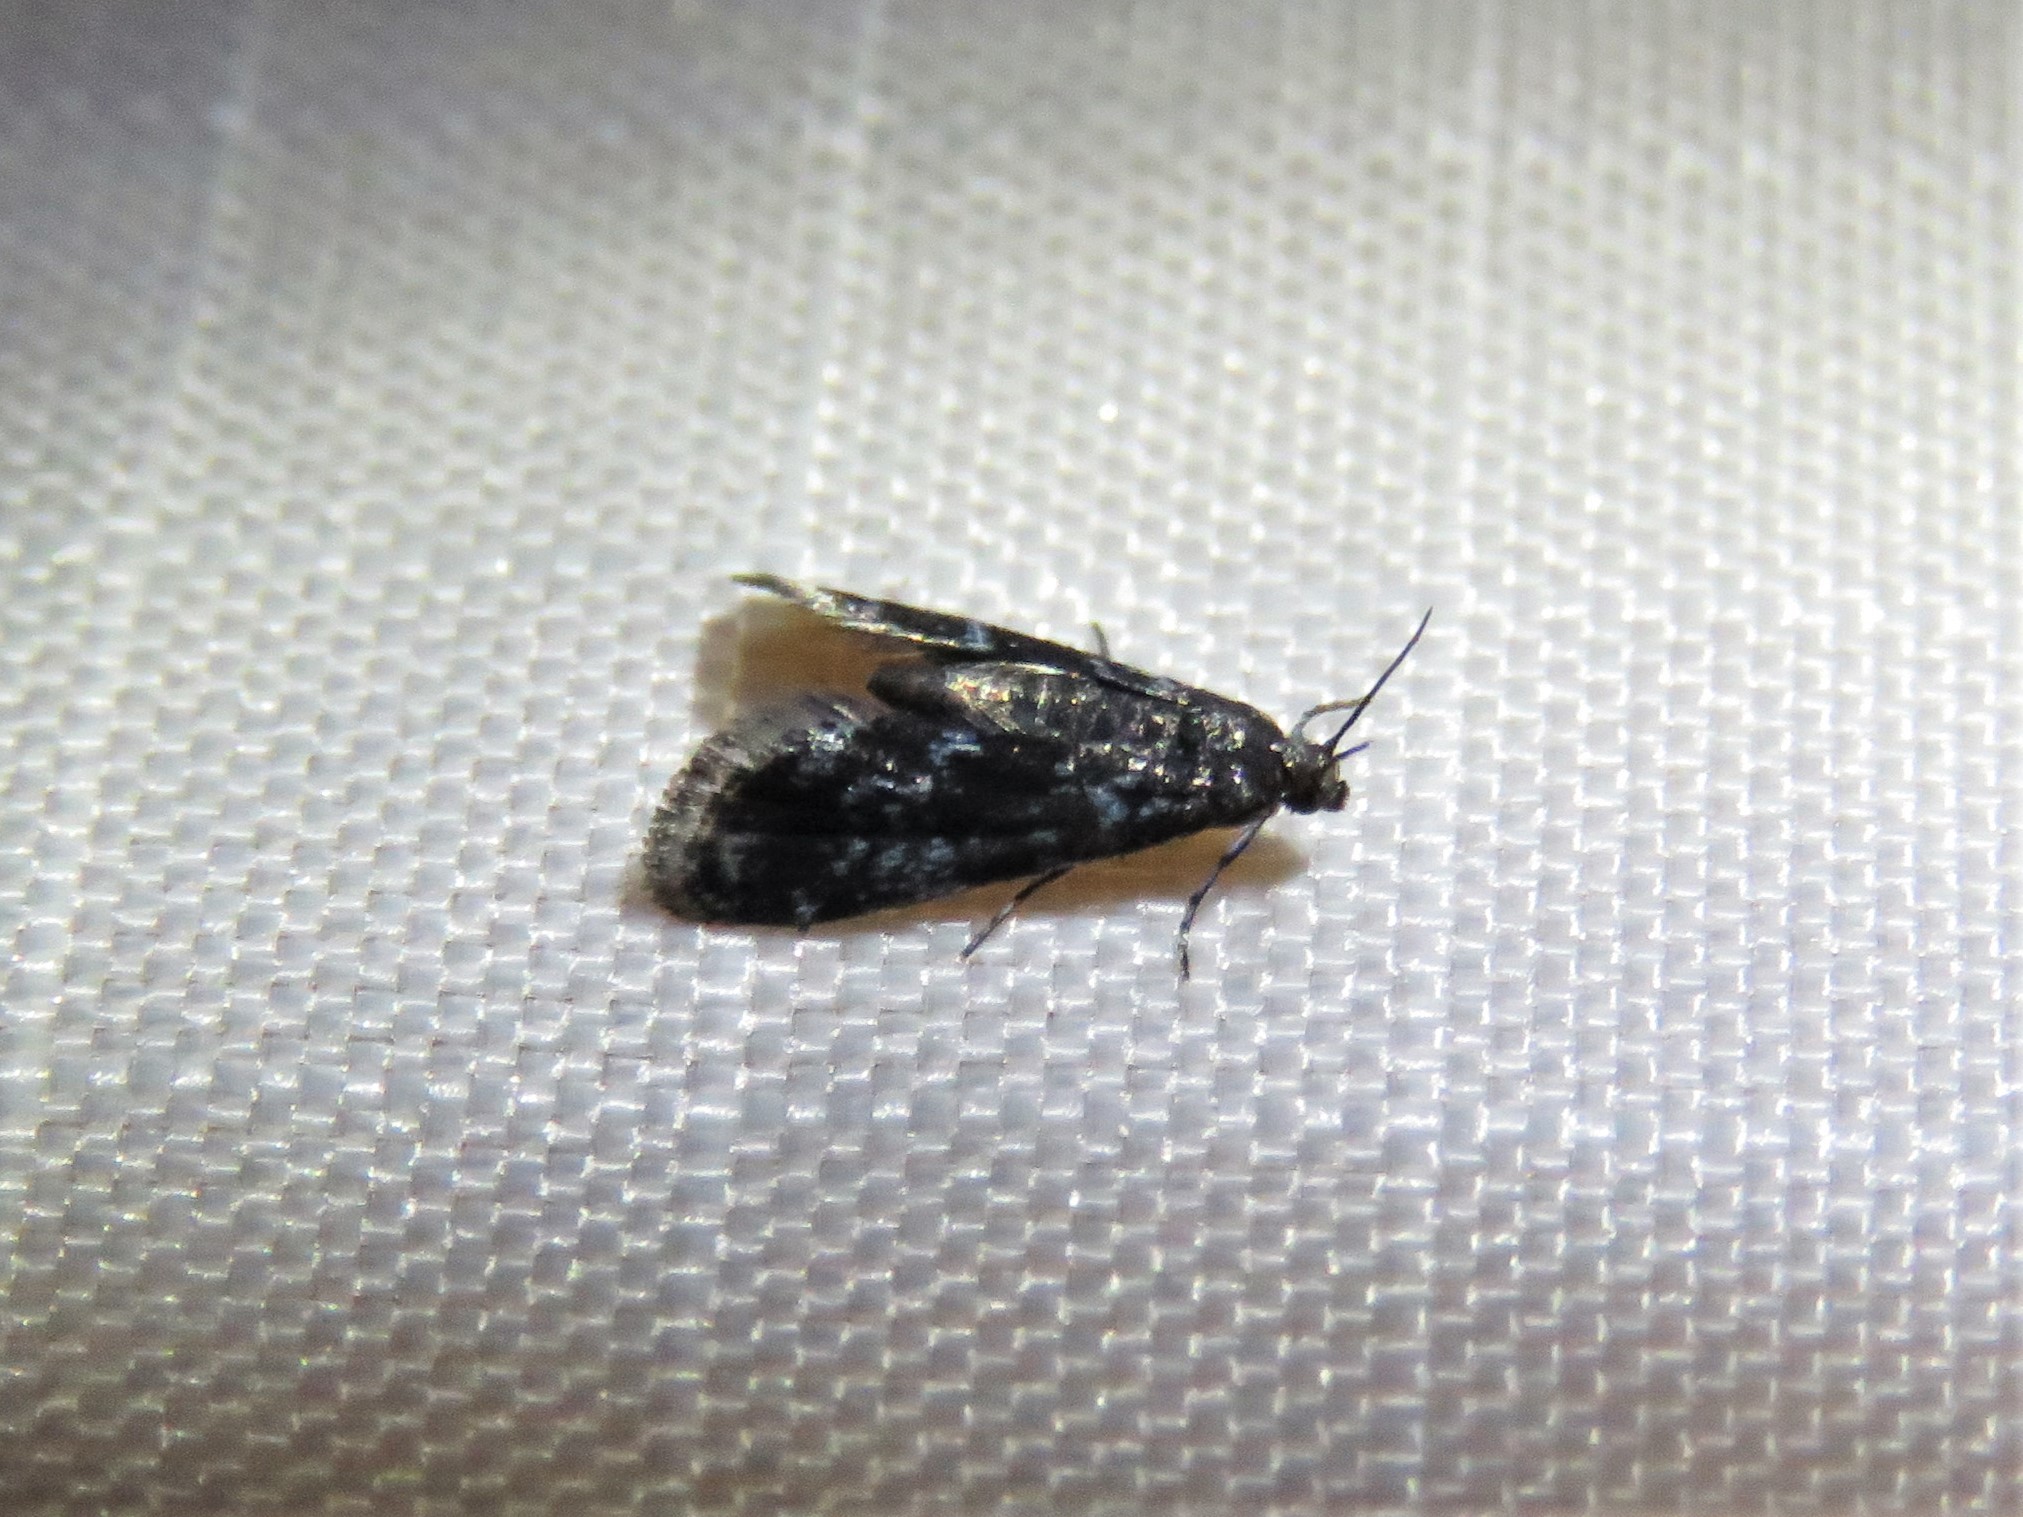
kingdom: Animalia
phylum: Arthropoda
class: Insecta
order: Lepidoptera
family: Crambidae
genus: Elophila
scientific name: Elophila tinealis
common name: Black duckweed moth
